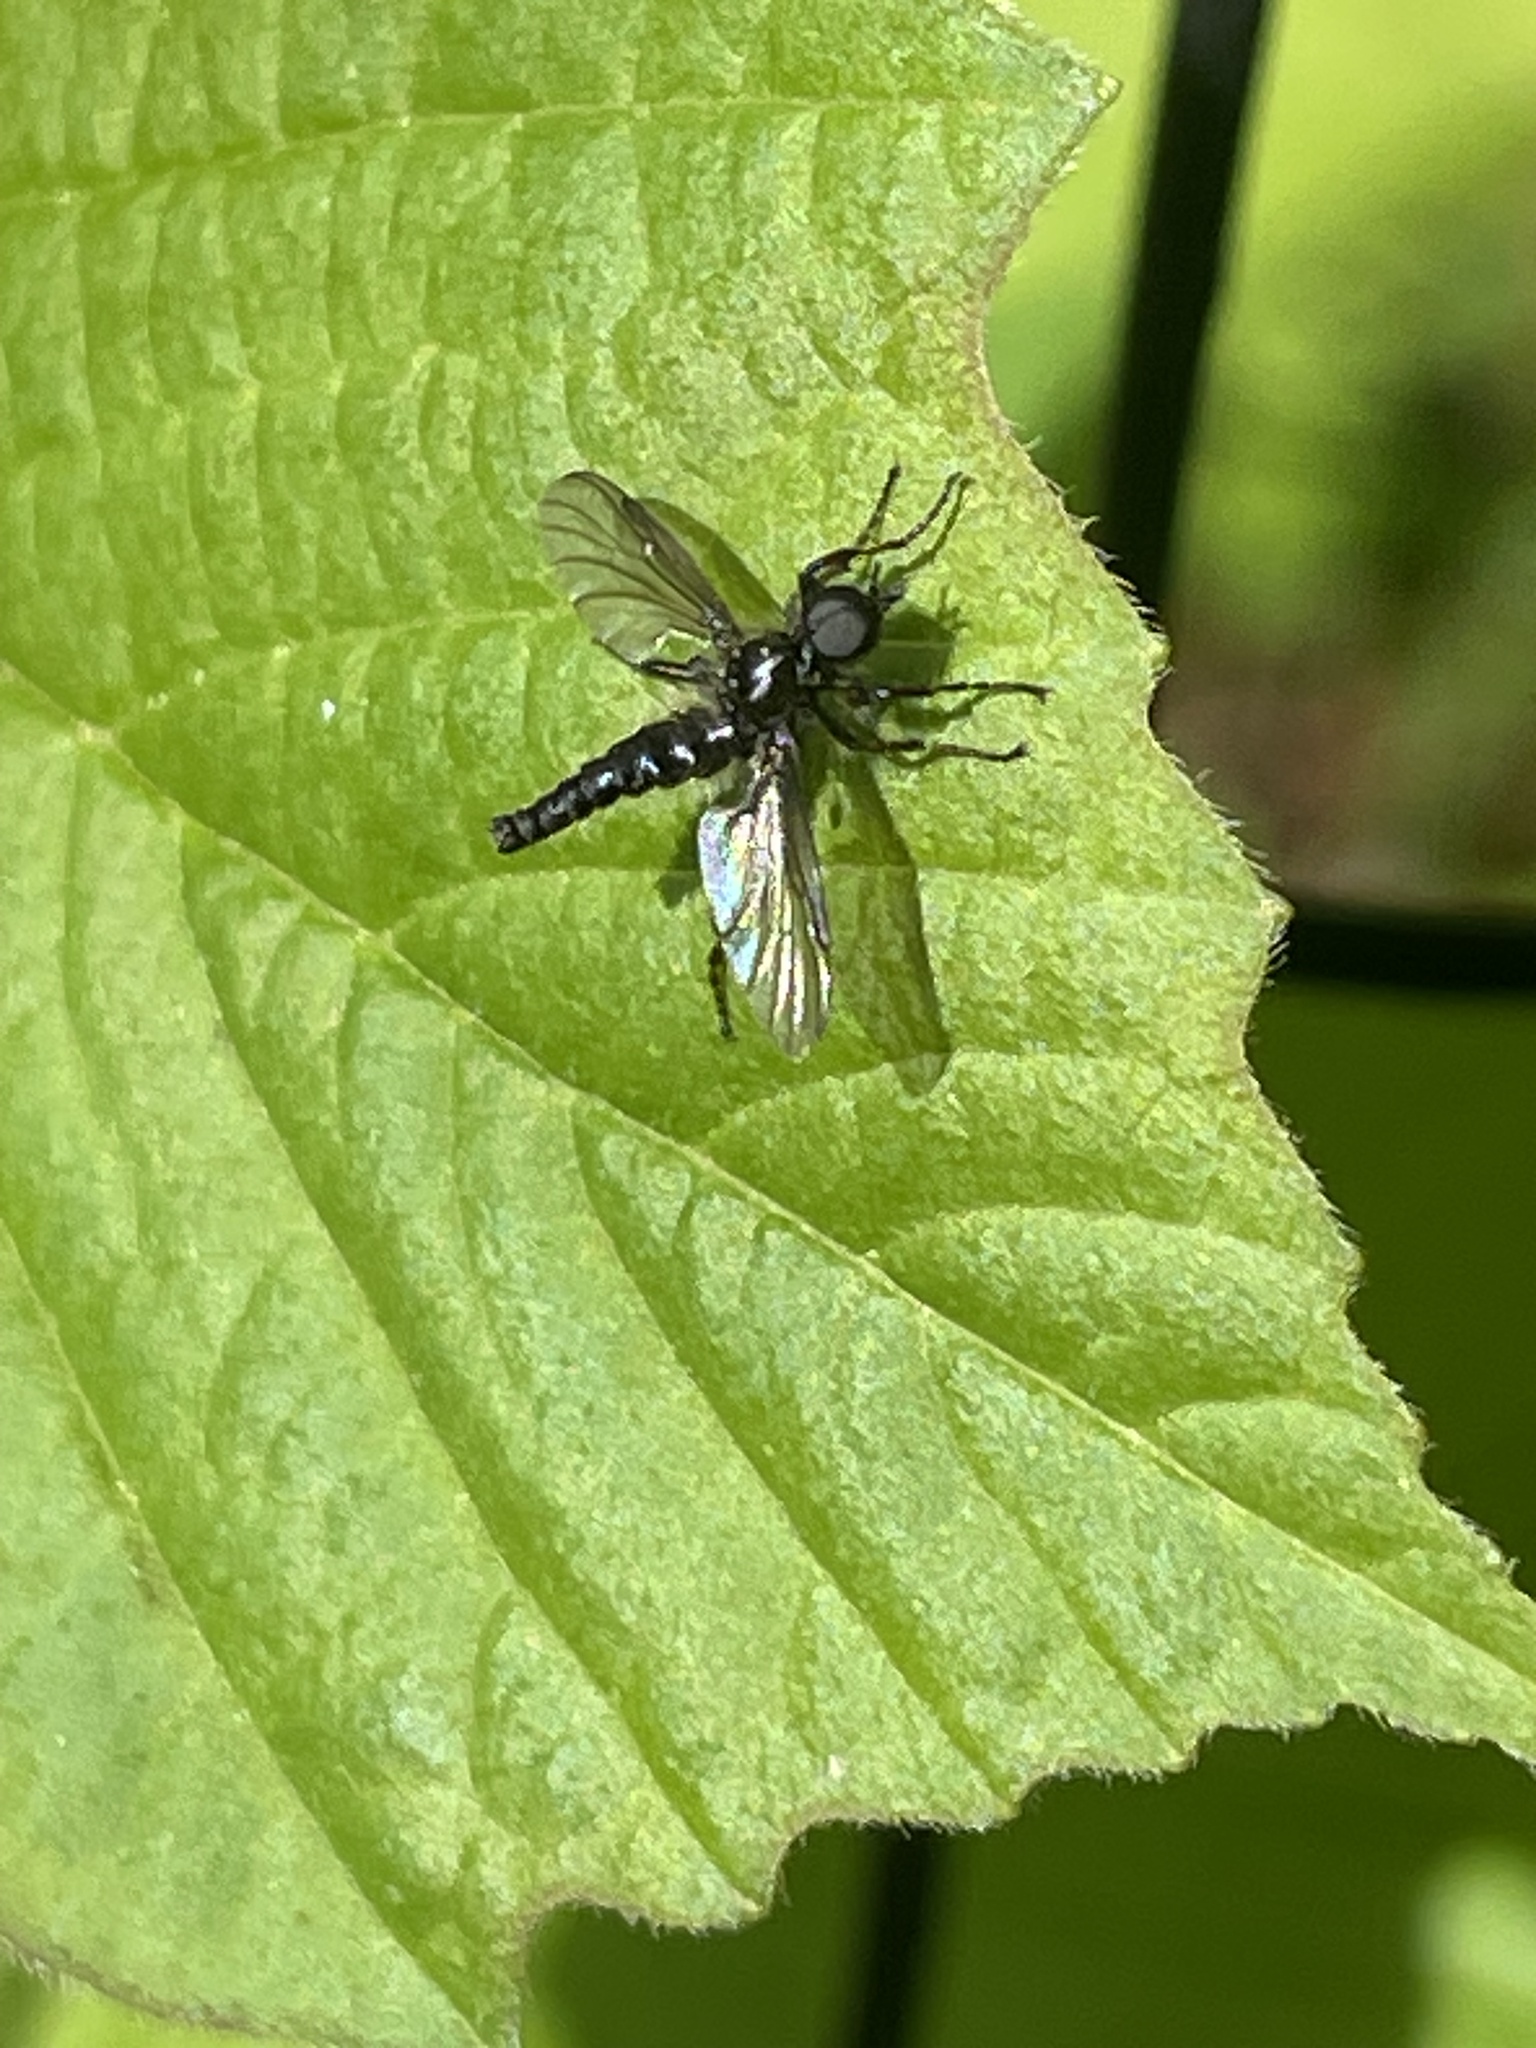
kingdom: Animalia
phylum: Arthropoda
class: Insecta
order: Diptera
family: Bibionidae
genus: Bibio
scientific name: Bibio lanigerus
